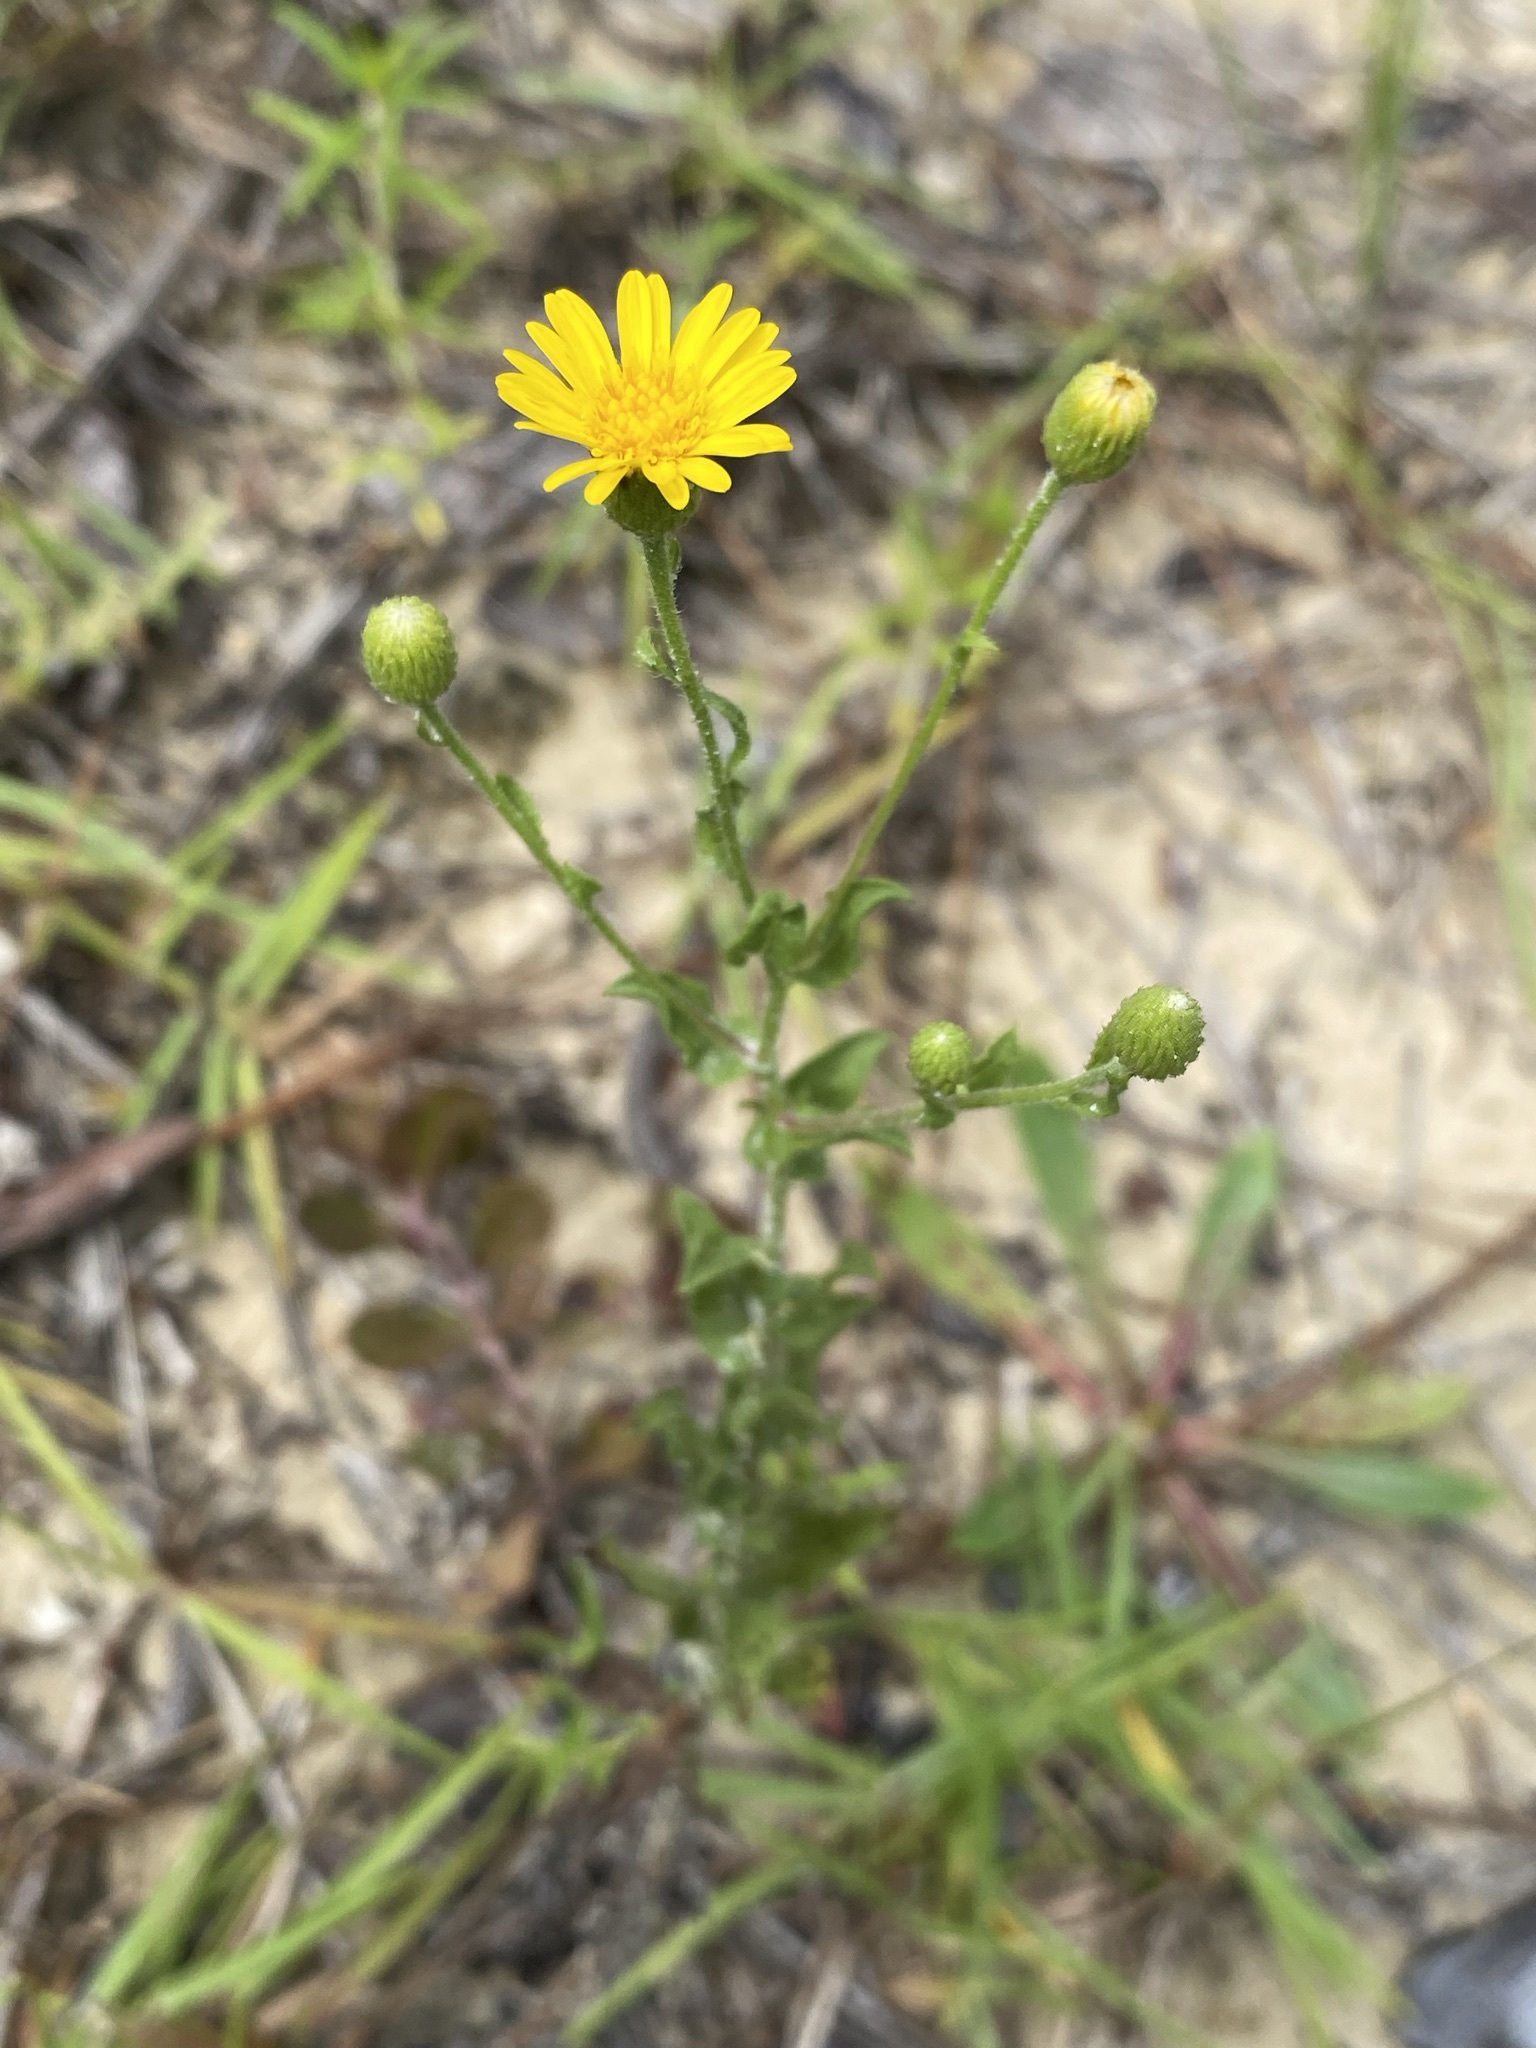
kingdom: Plantae
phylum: Tracheophyta
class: Magnoliopsida
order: Asterales
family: Asteraceae
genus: Heterotheca
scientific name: Heterotheca subaxillaris
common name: Camphorweed
